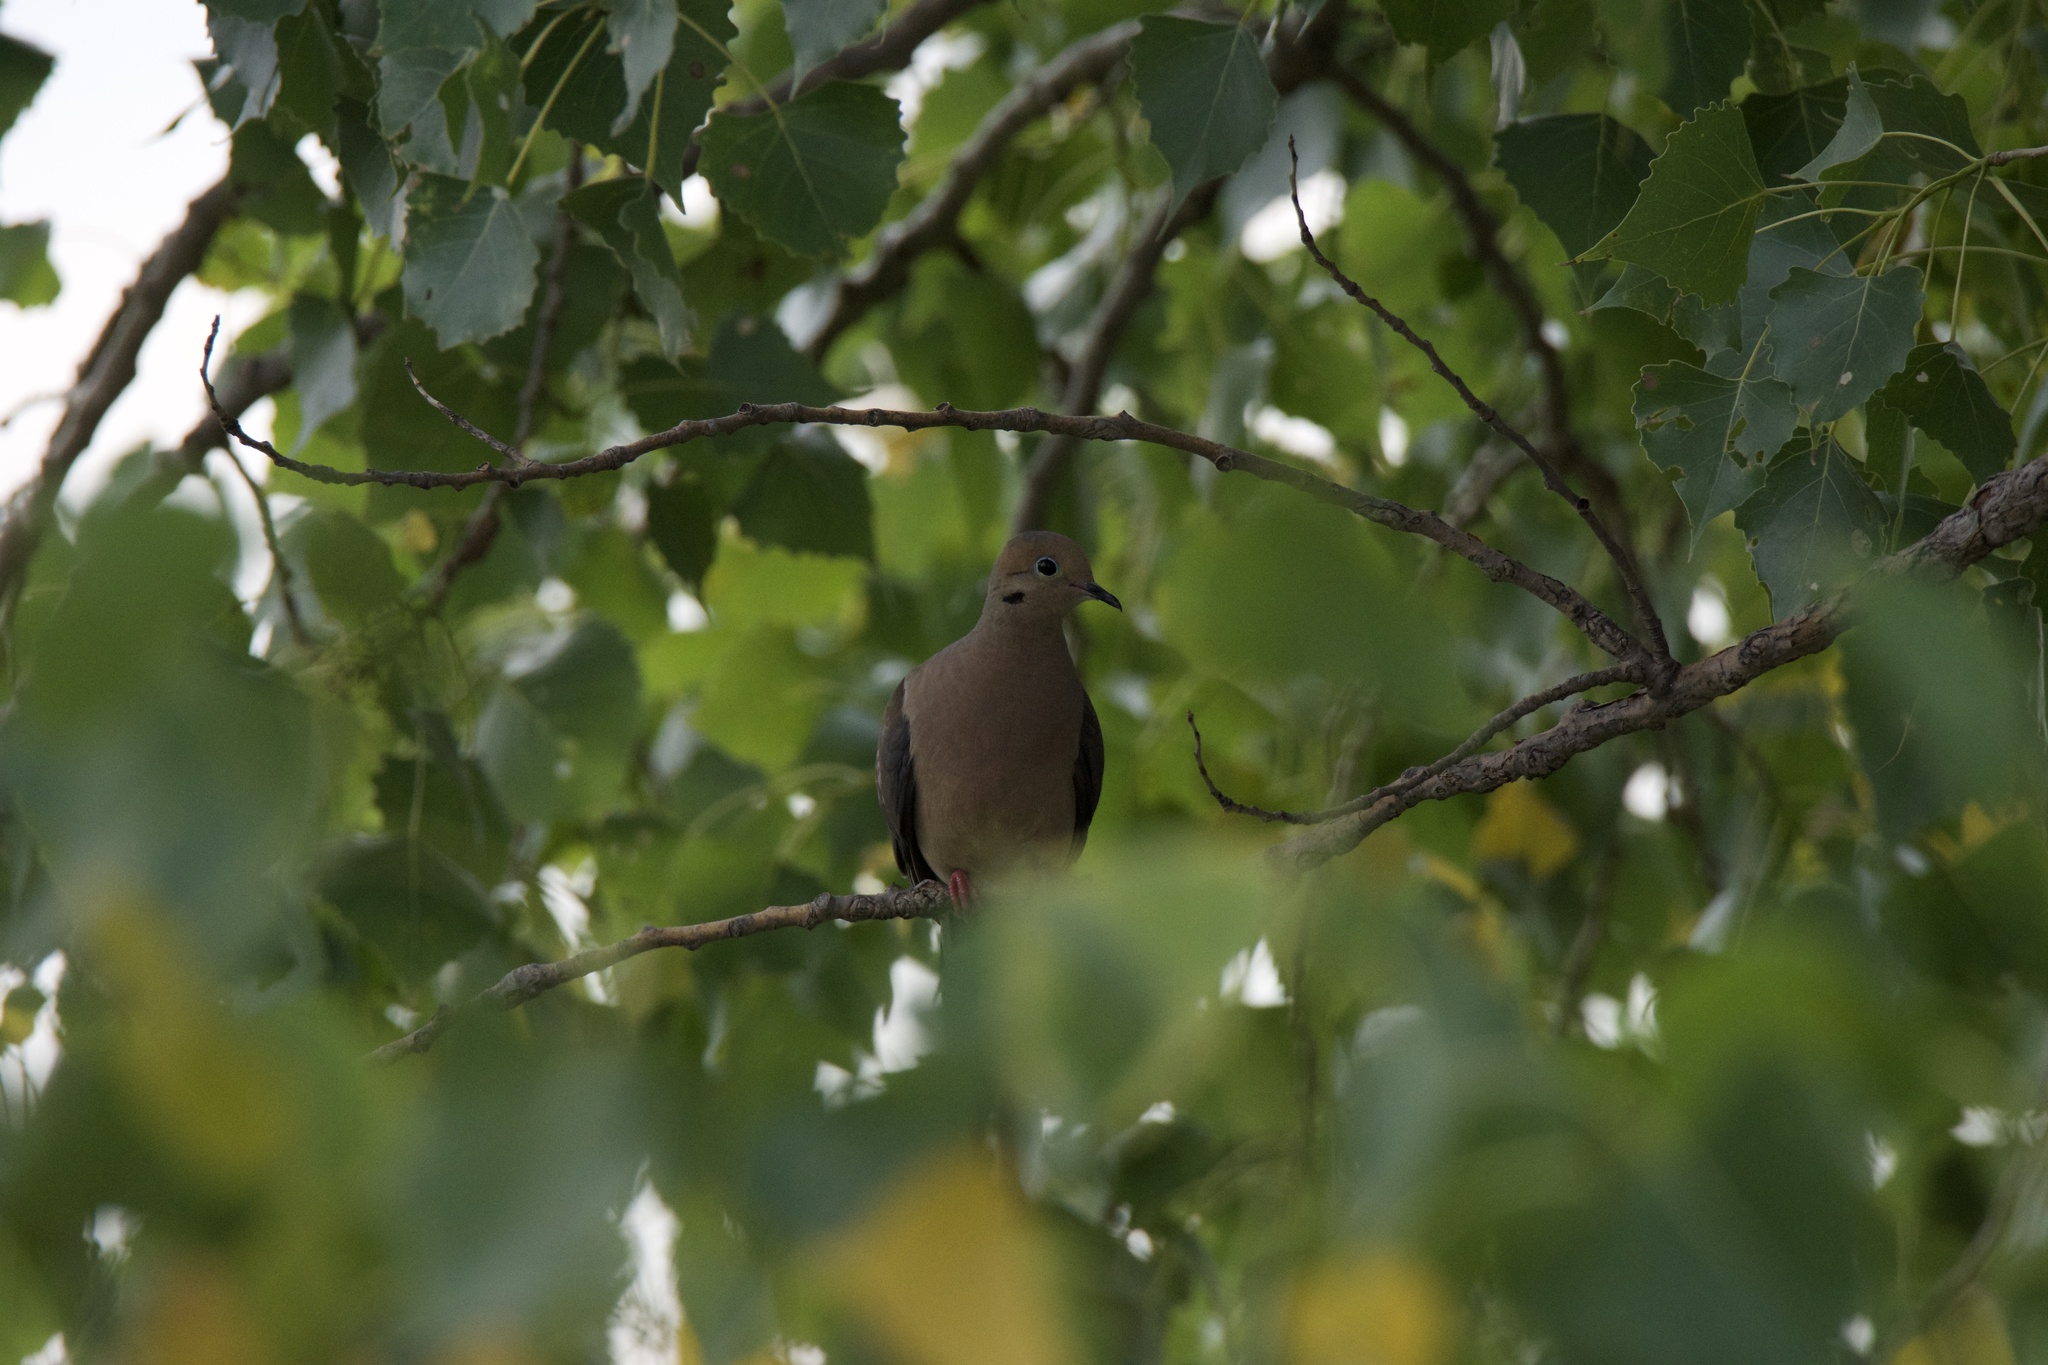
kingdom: Animalia
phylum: Chordata
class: Aves
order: Columbiformes
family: Columbidae
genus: Zenaida
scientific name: Zenaida macroura
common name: Mourning dove
